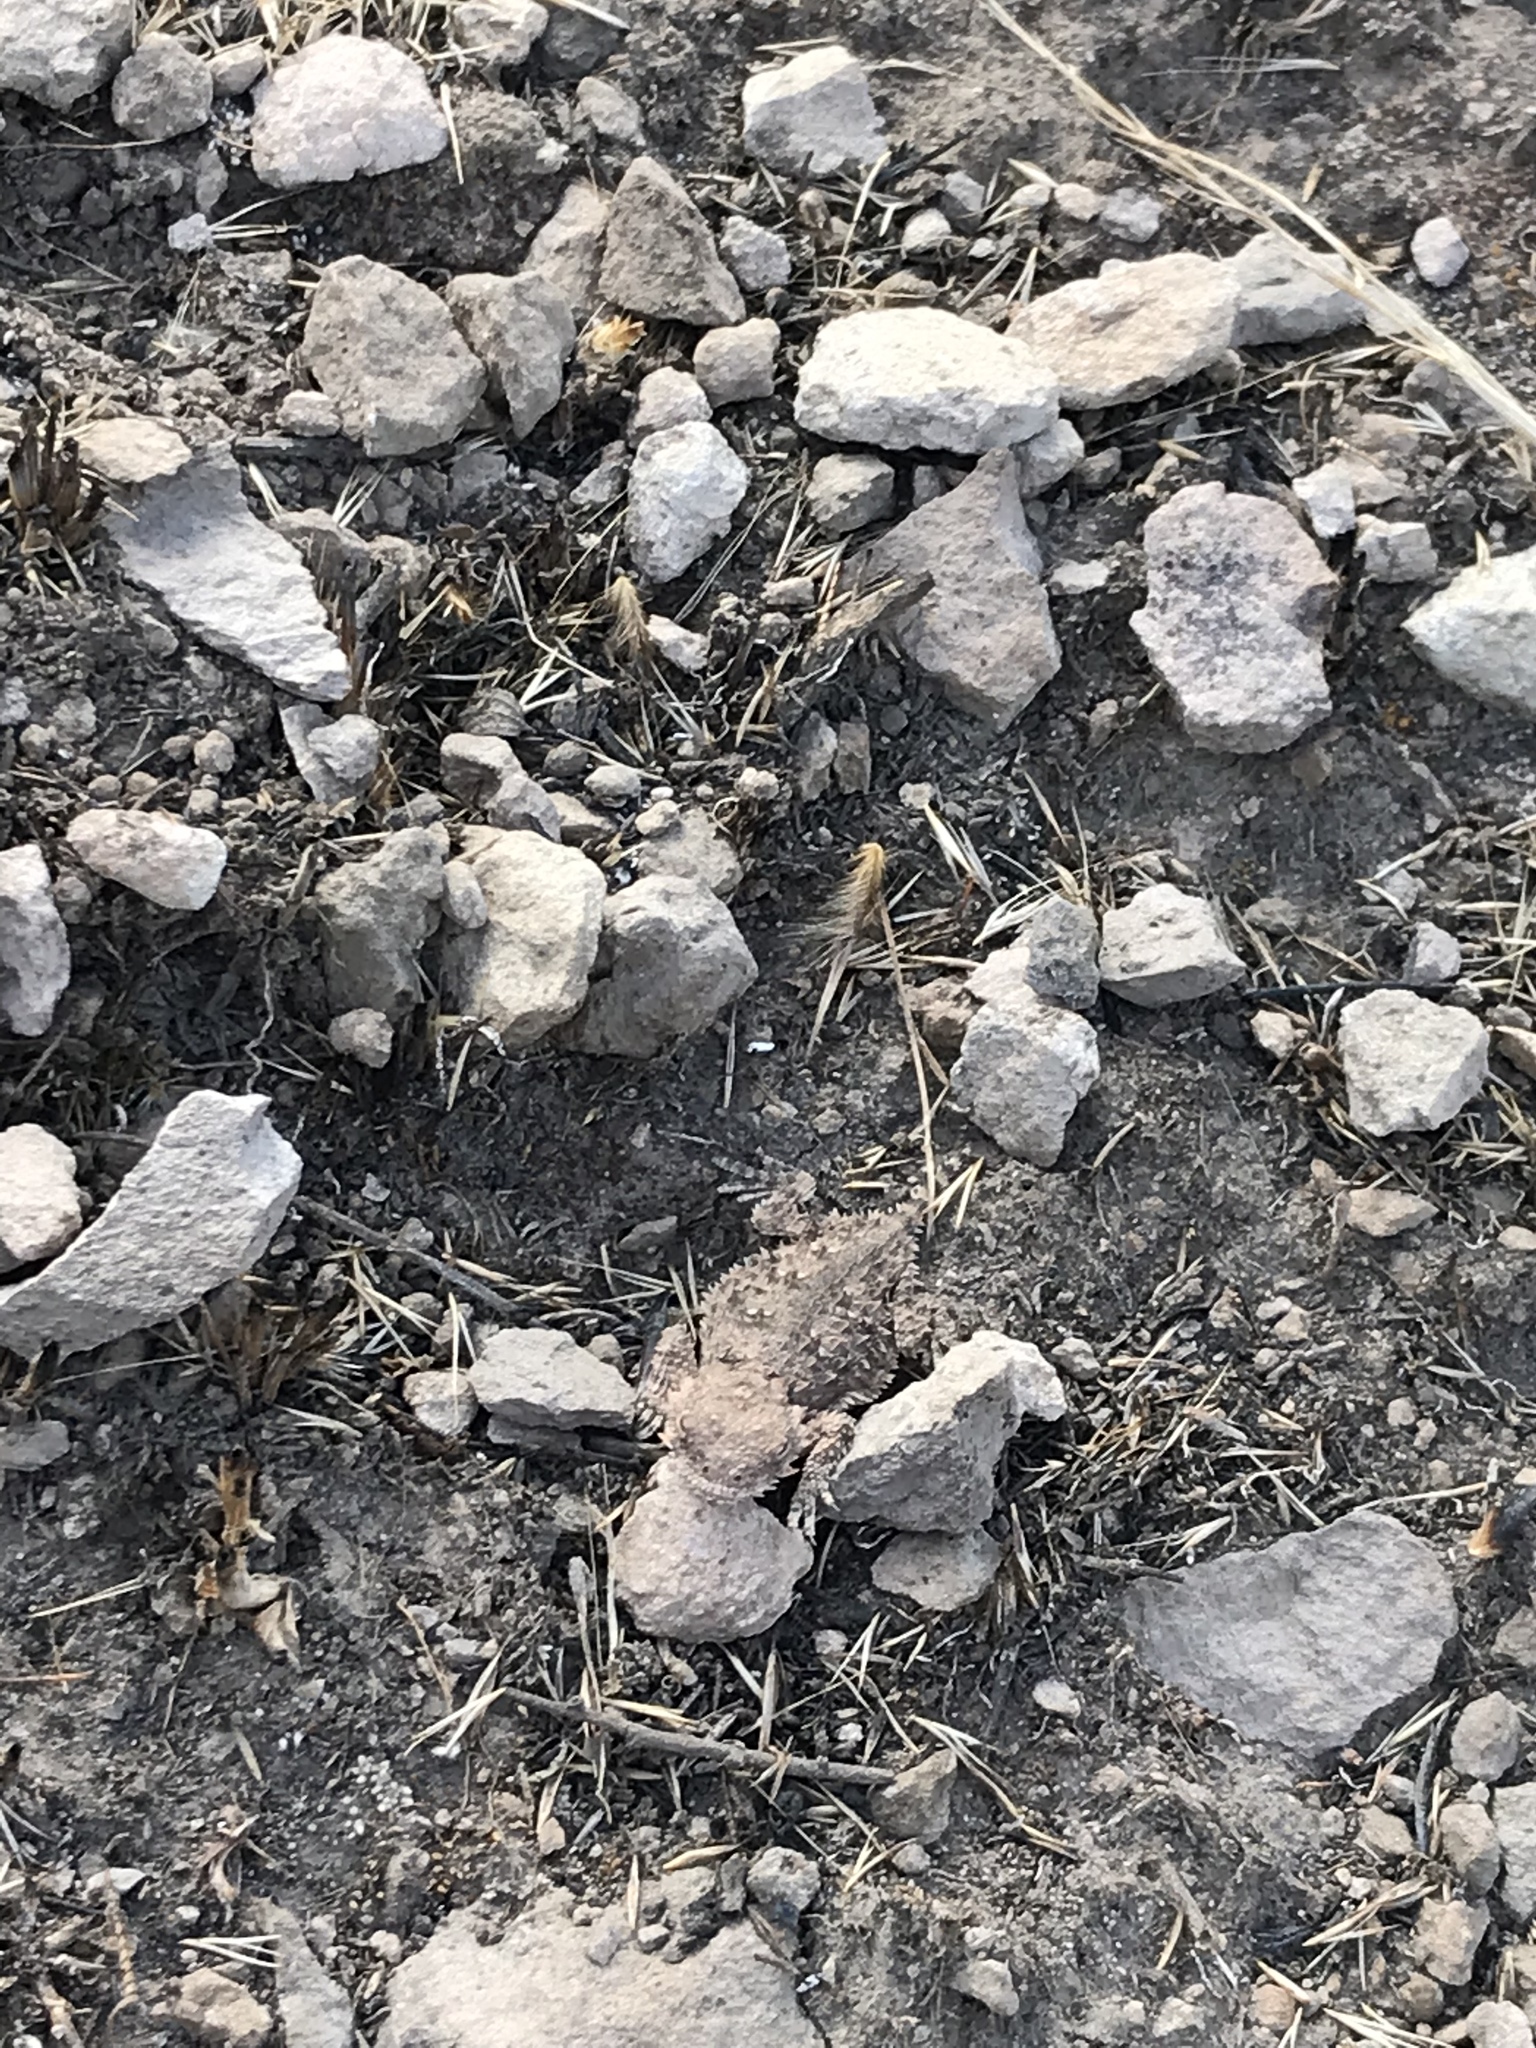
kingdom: Animalia
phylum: Chordata
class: Squamata
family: Phrynosomatidae
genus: Phrynosoma
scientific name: Phrynosoma blainvillii
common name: San diego horned lizard
